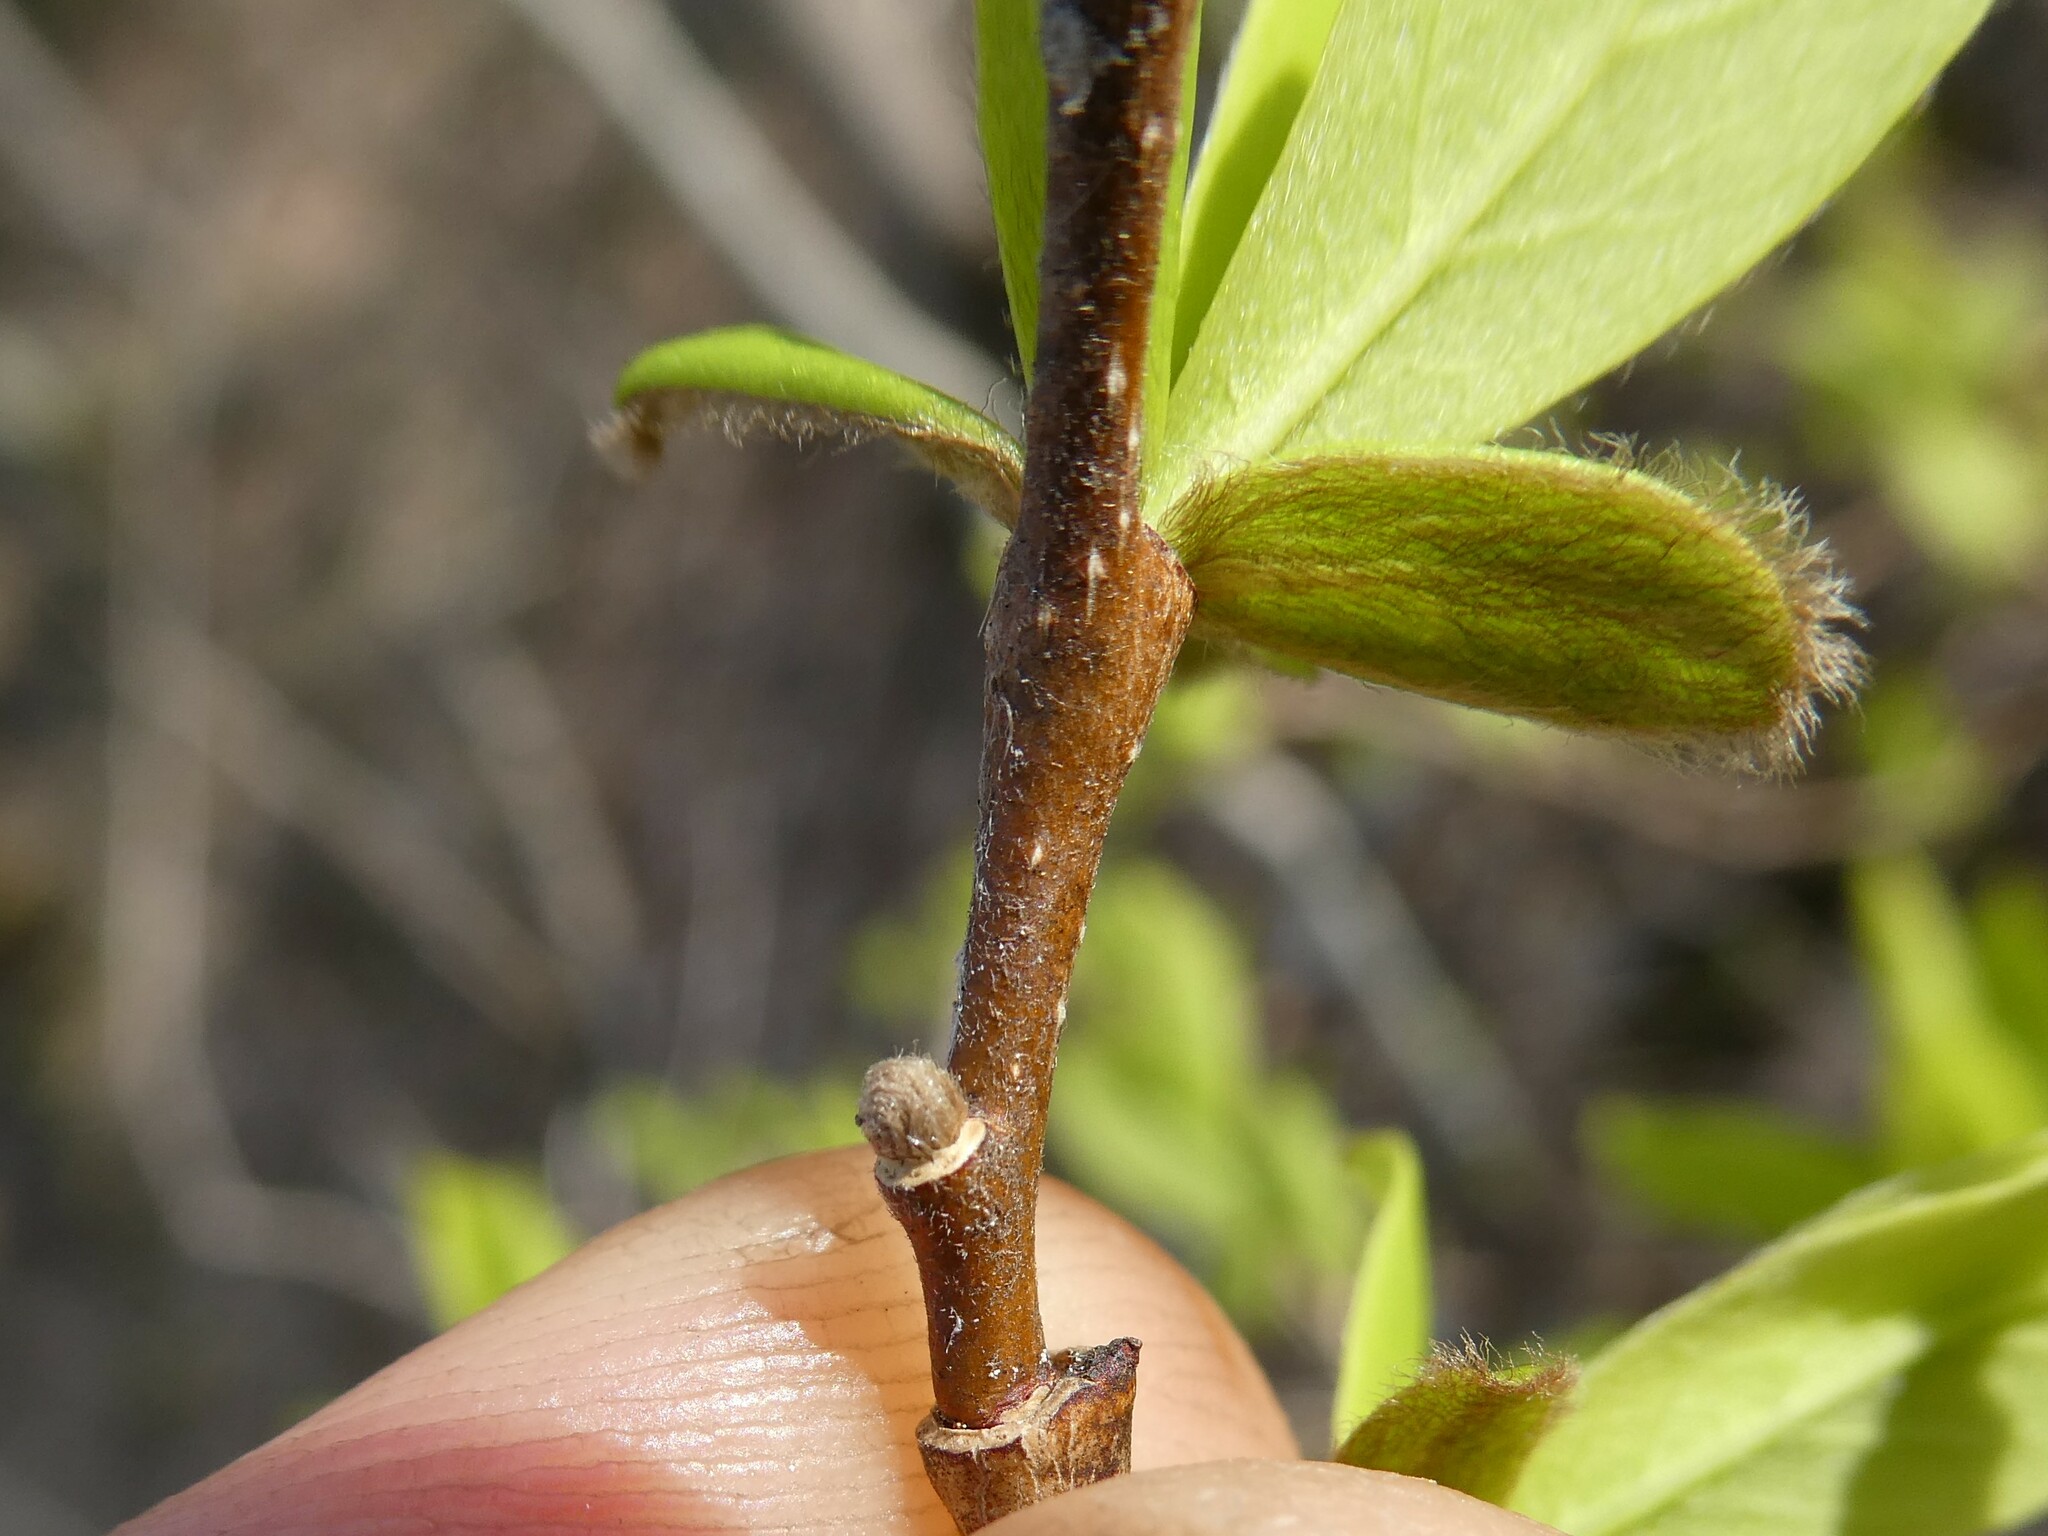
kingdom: Plantae
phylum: Tracheophyta
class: Magnoliopsida
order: Malvales
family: Thymelaeaceae
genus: Dirca
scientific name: Dirca palustris
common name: Leatherwood
